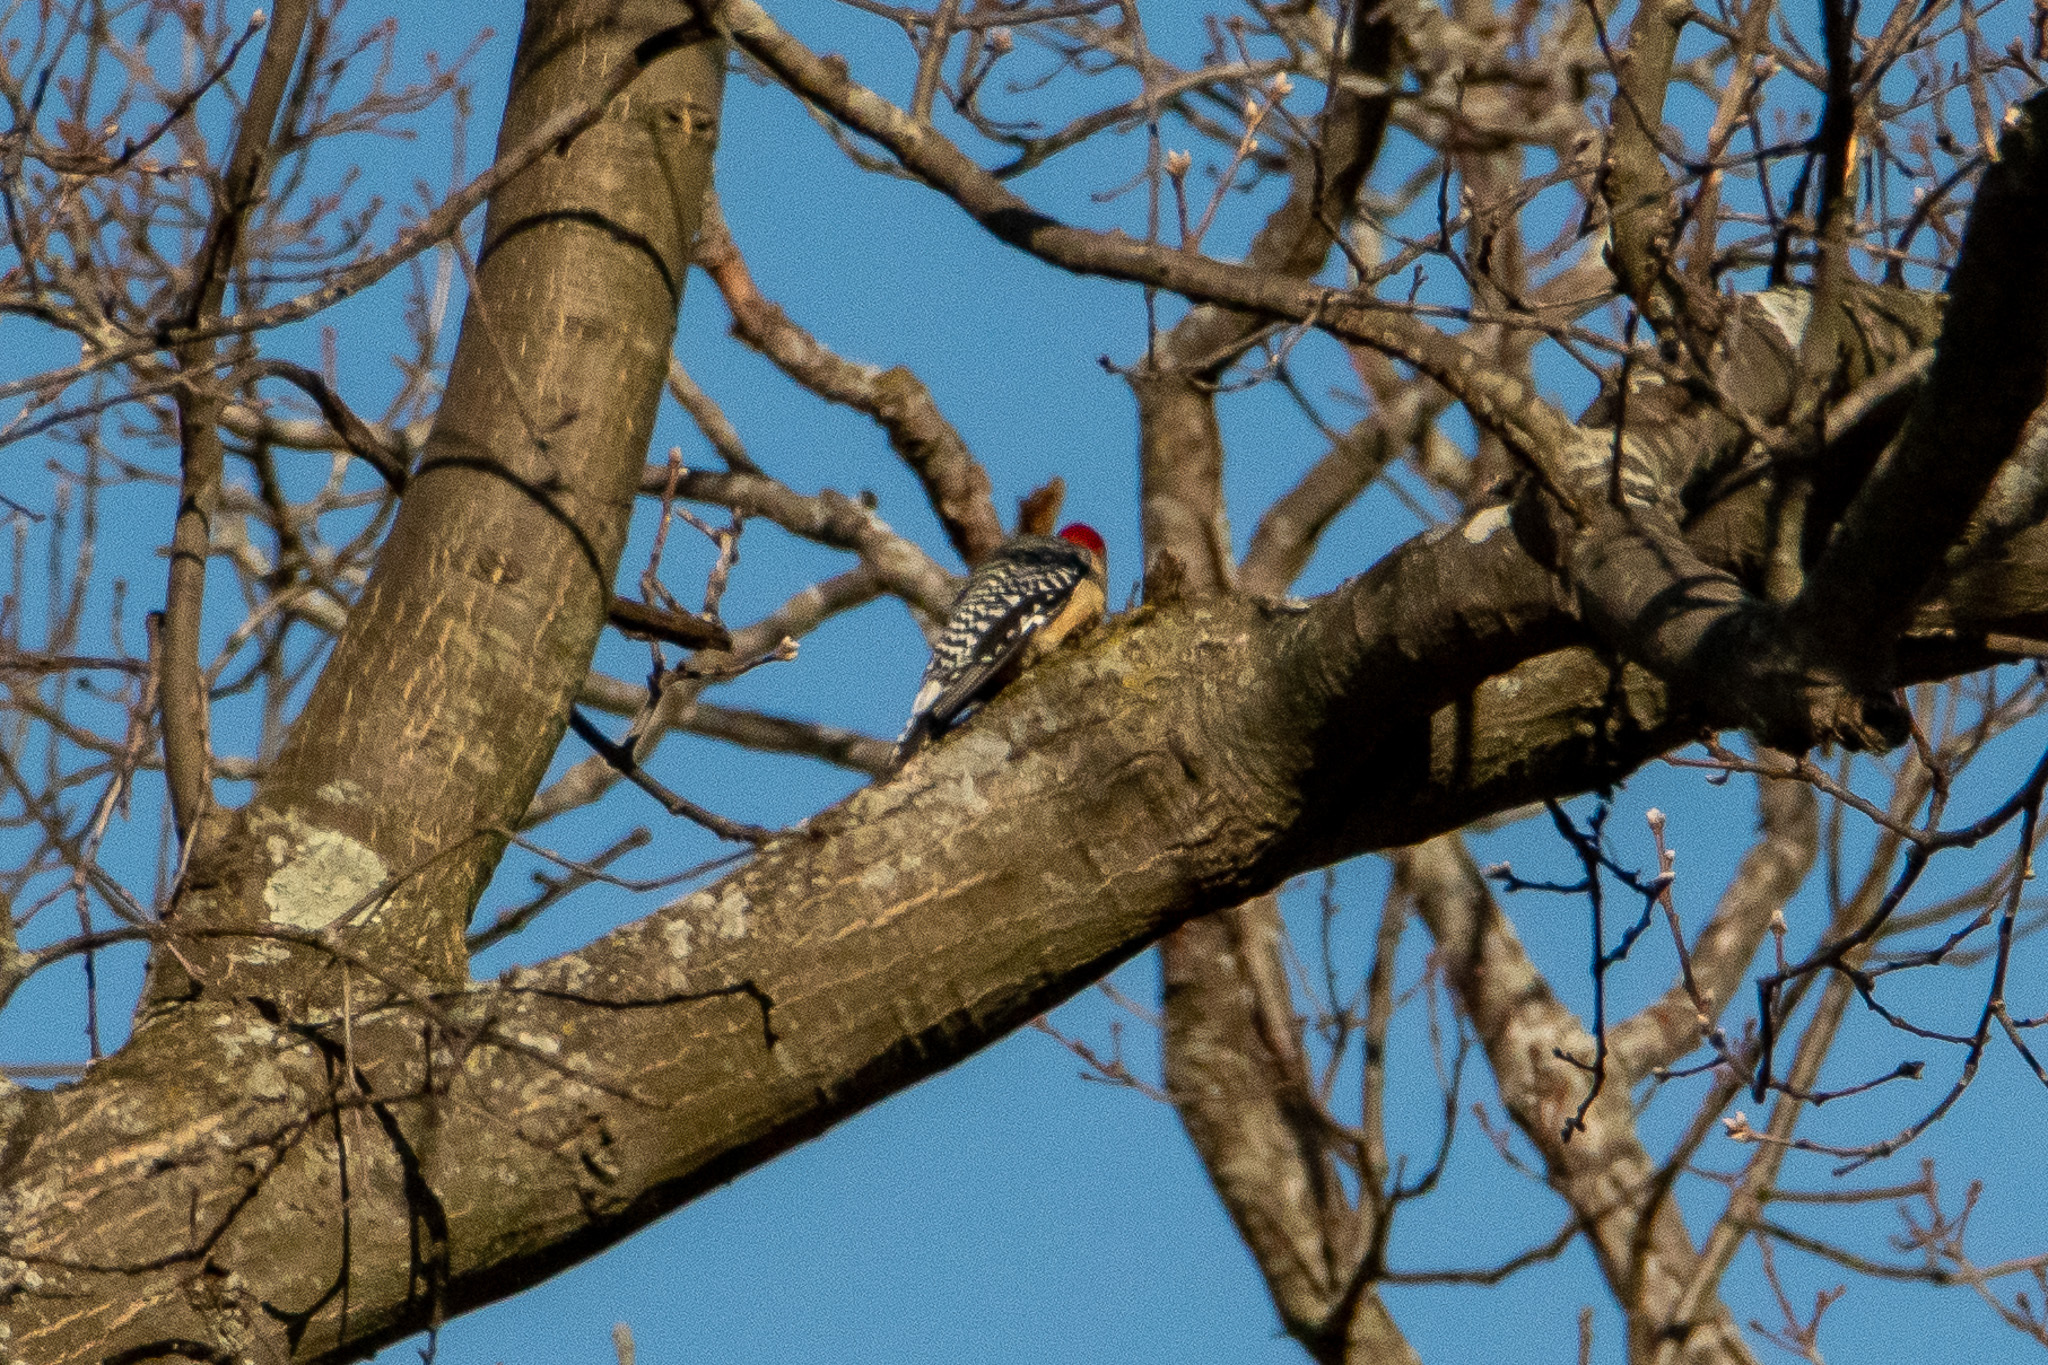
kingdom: Animalia
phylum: Chordata
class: Aves
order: Piciformes
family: Picidae
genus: Melanerpes
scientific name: Melanerpes carolinus
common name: Red-bellied woodpecker
